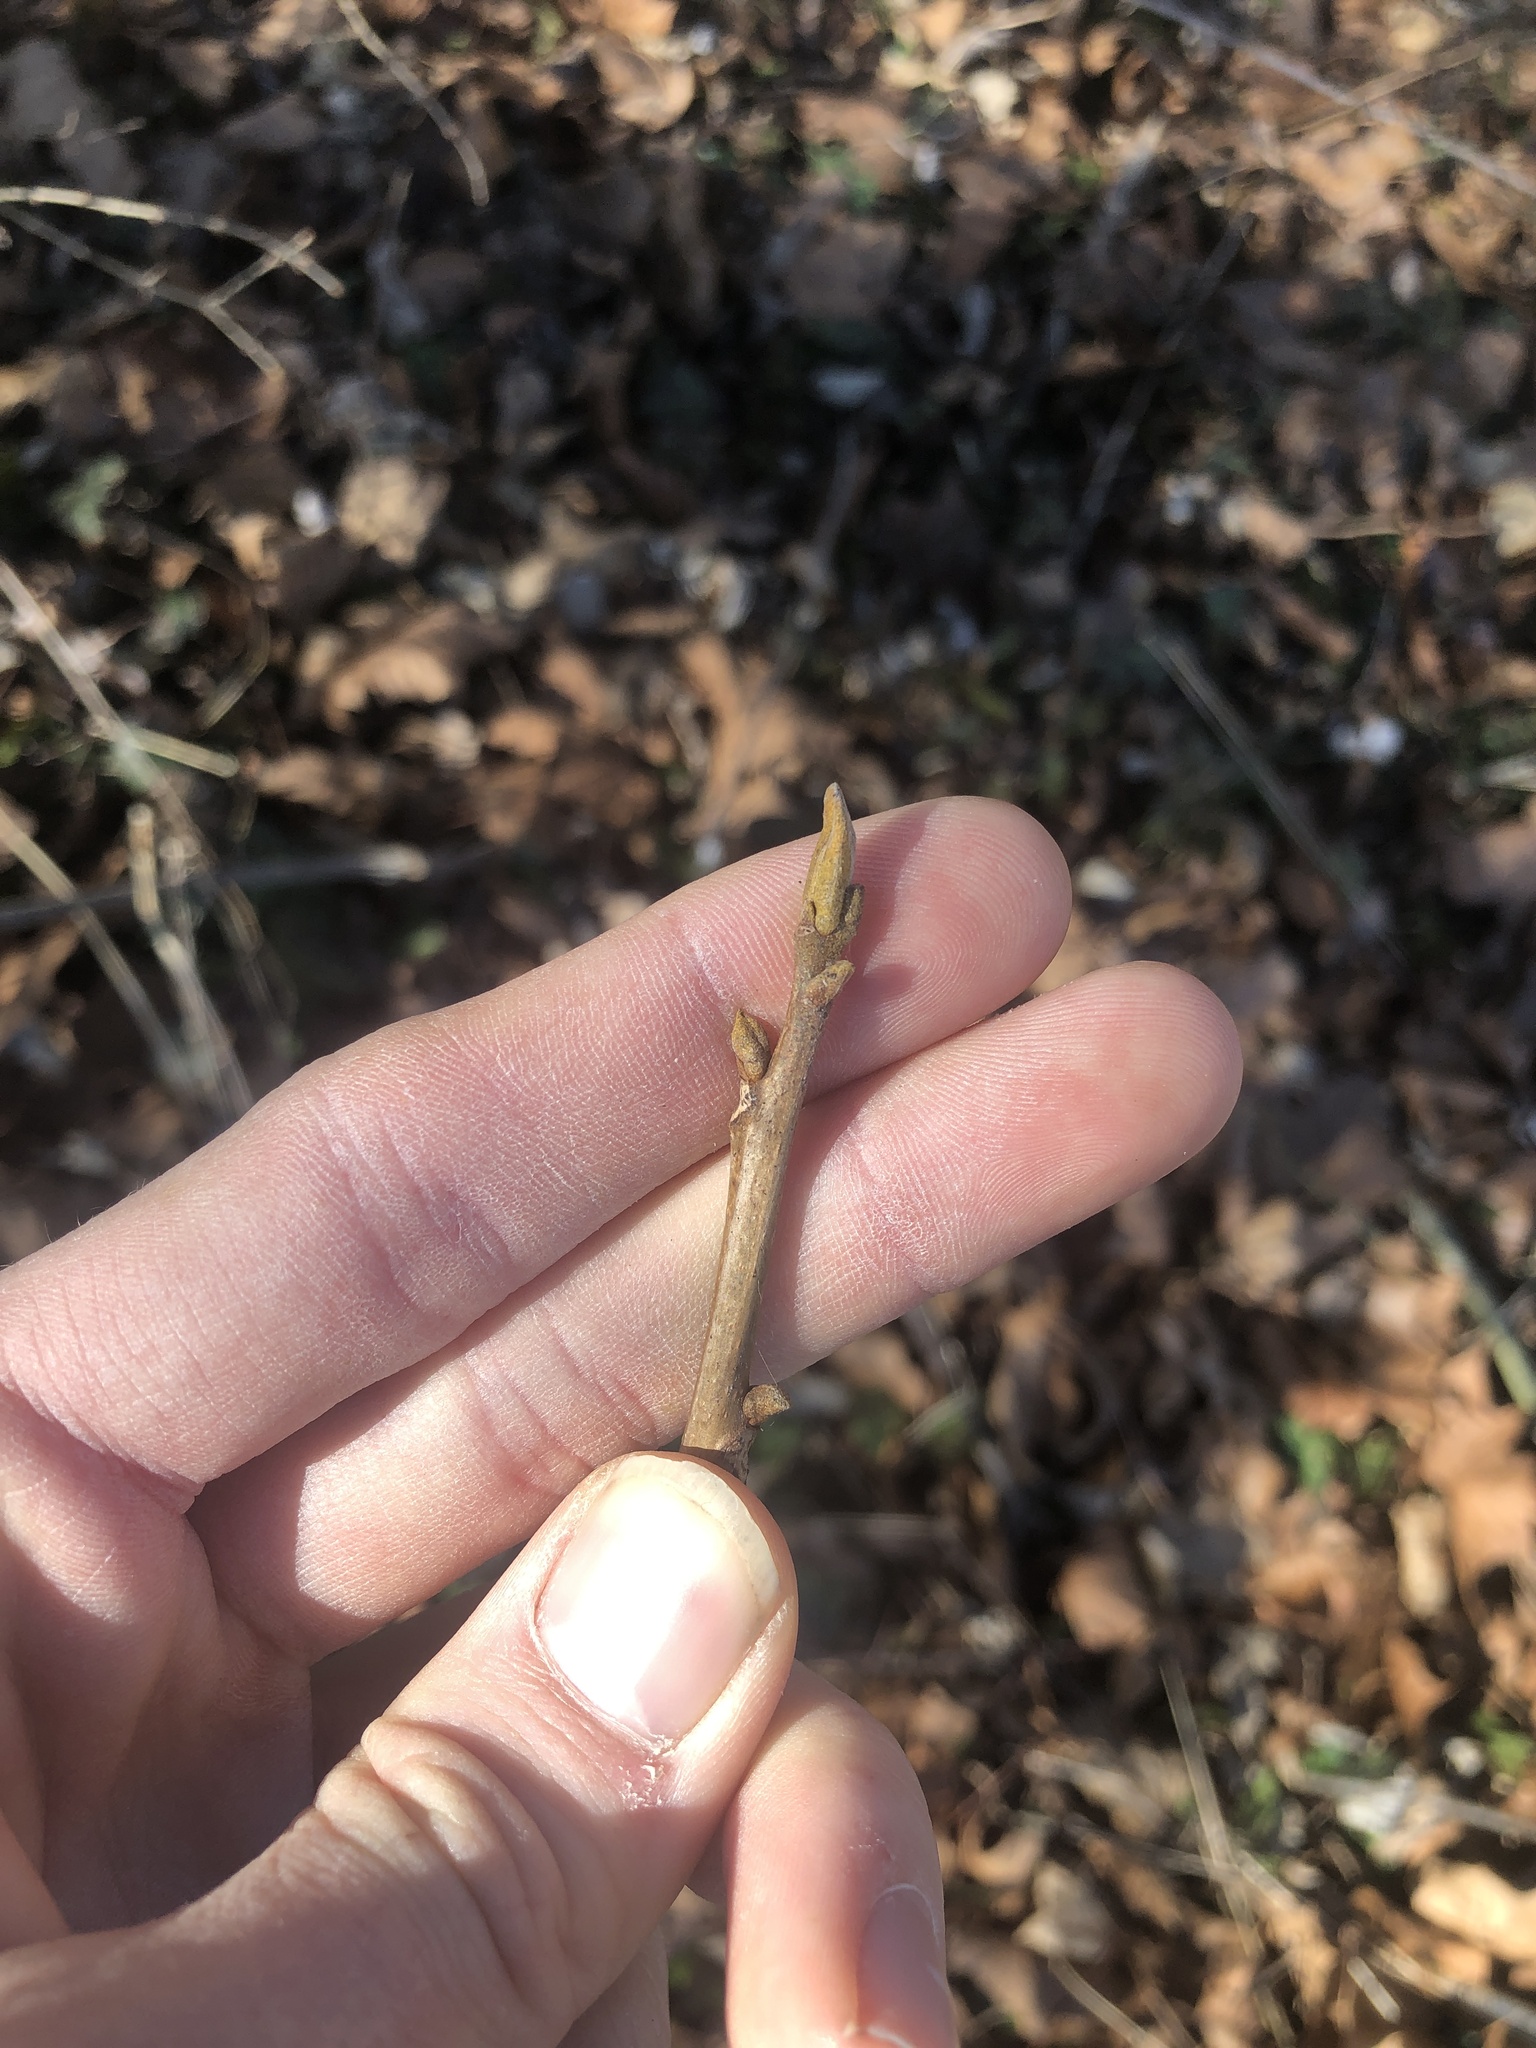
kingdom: Plantae
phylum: Tracheophyta
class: Magnoliopsida
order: Fagales
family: Juglandaceae
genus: Carya
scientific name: Carya cordiformis
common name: Bitternut hickory
